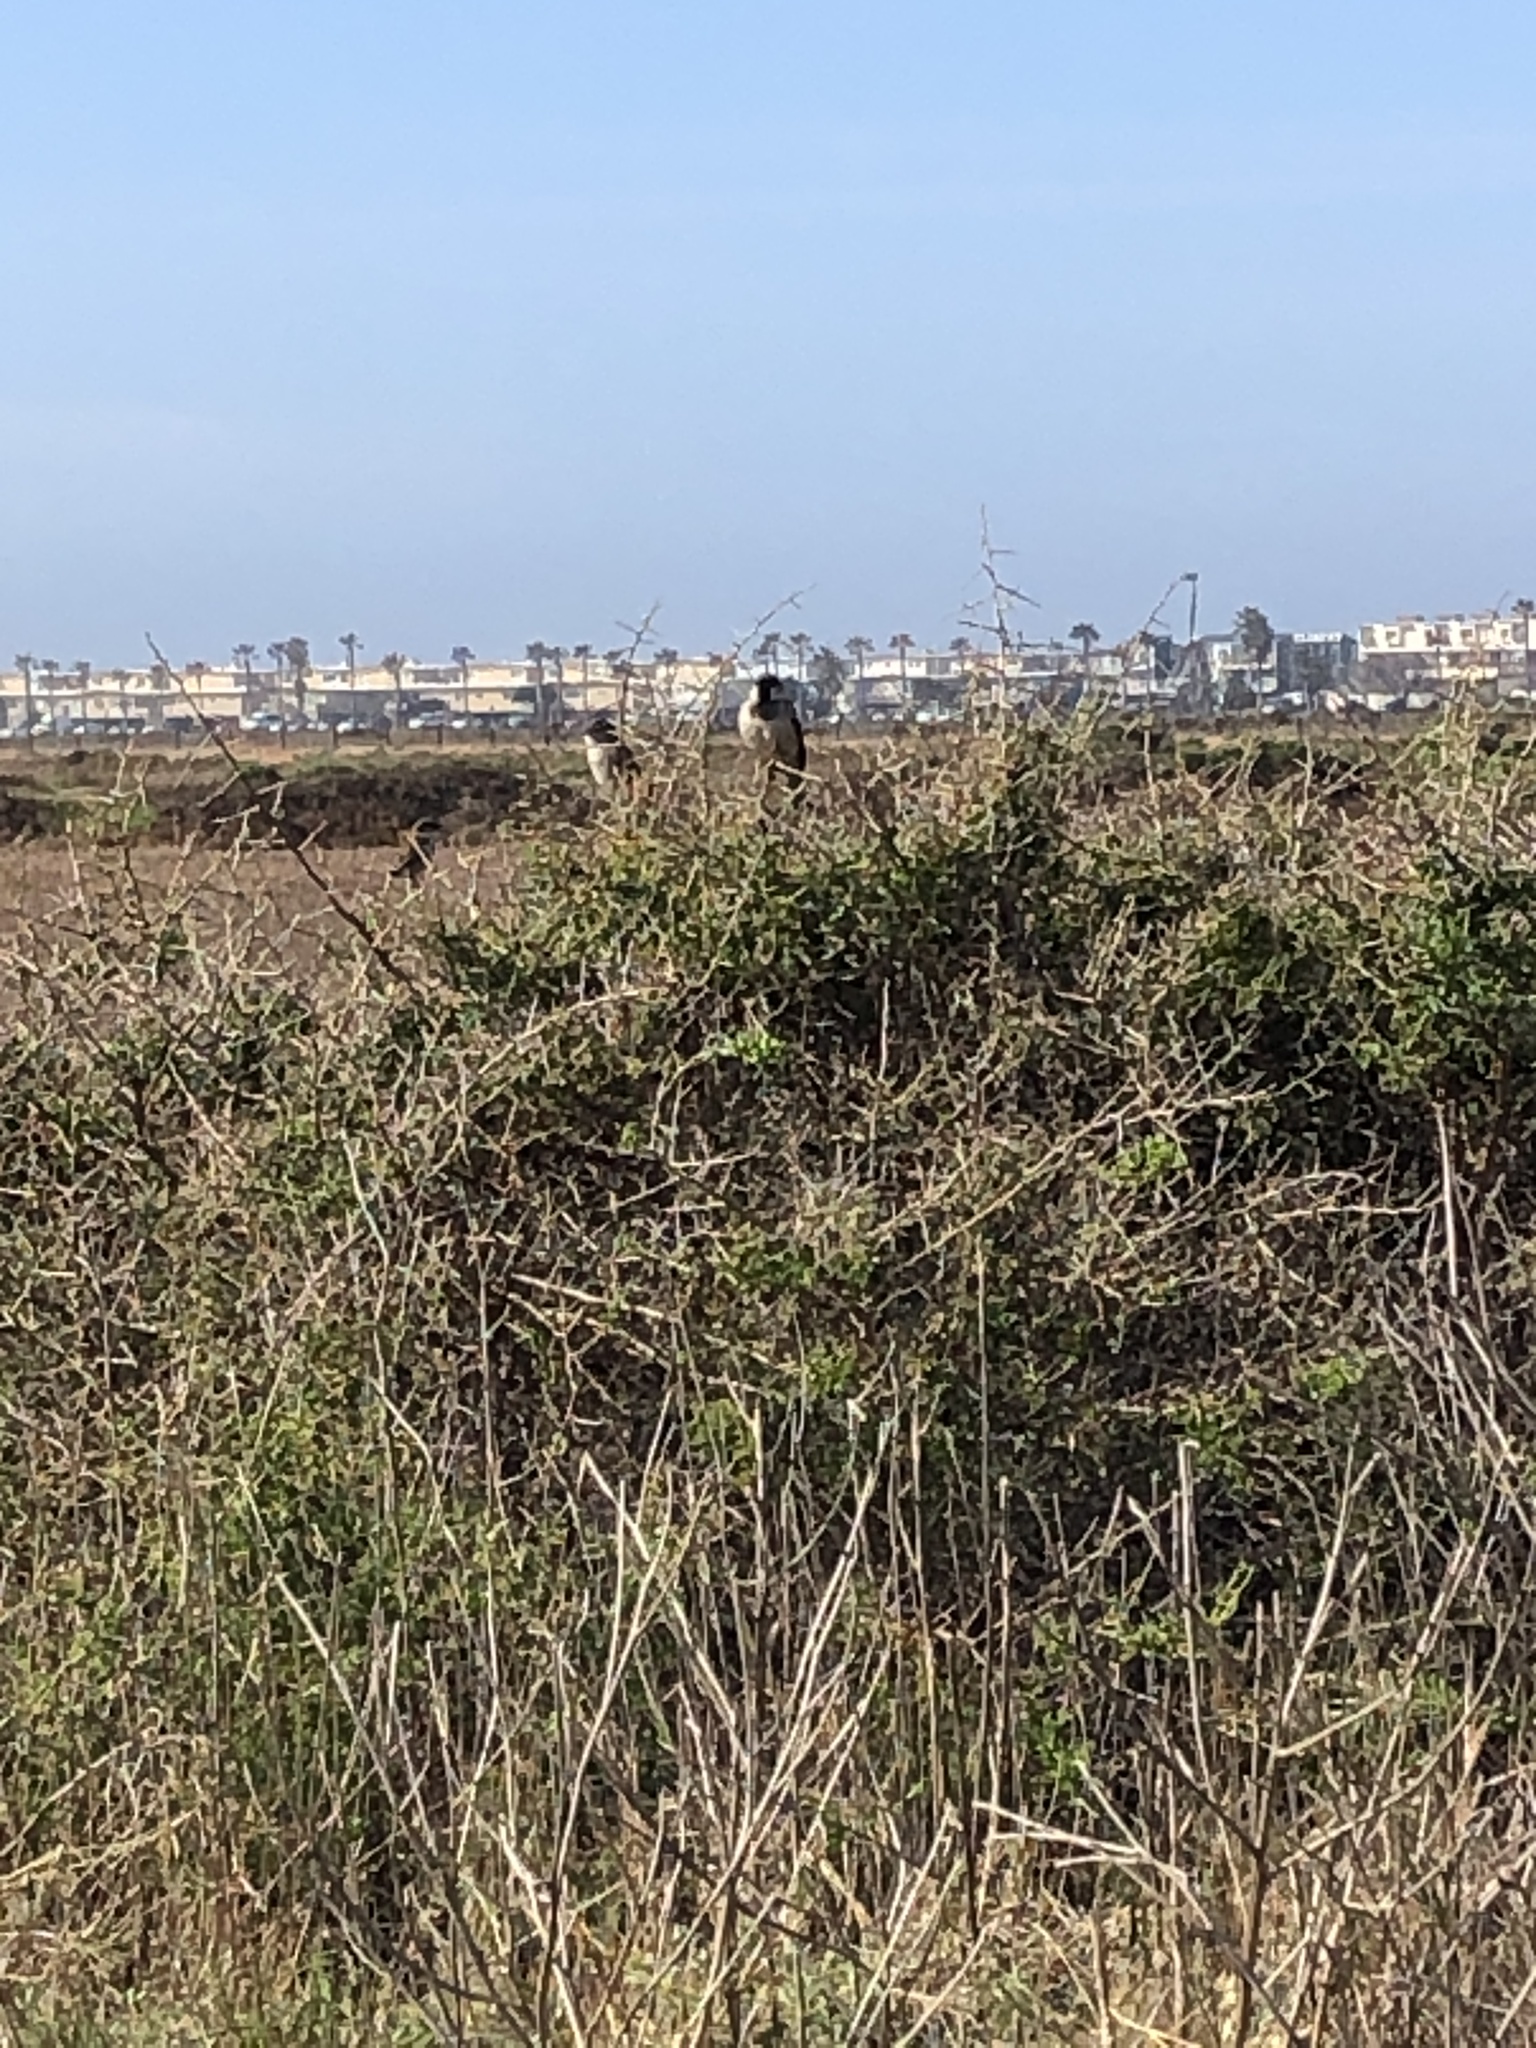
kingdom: Animalia
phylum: Chordata
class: Aves
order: Passeriformes
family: Passeridae
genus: Passer
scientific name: Passer domesticus
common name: House sparrow
